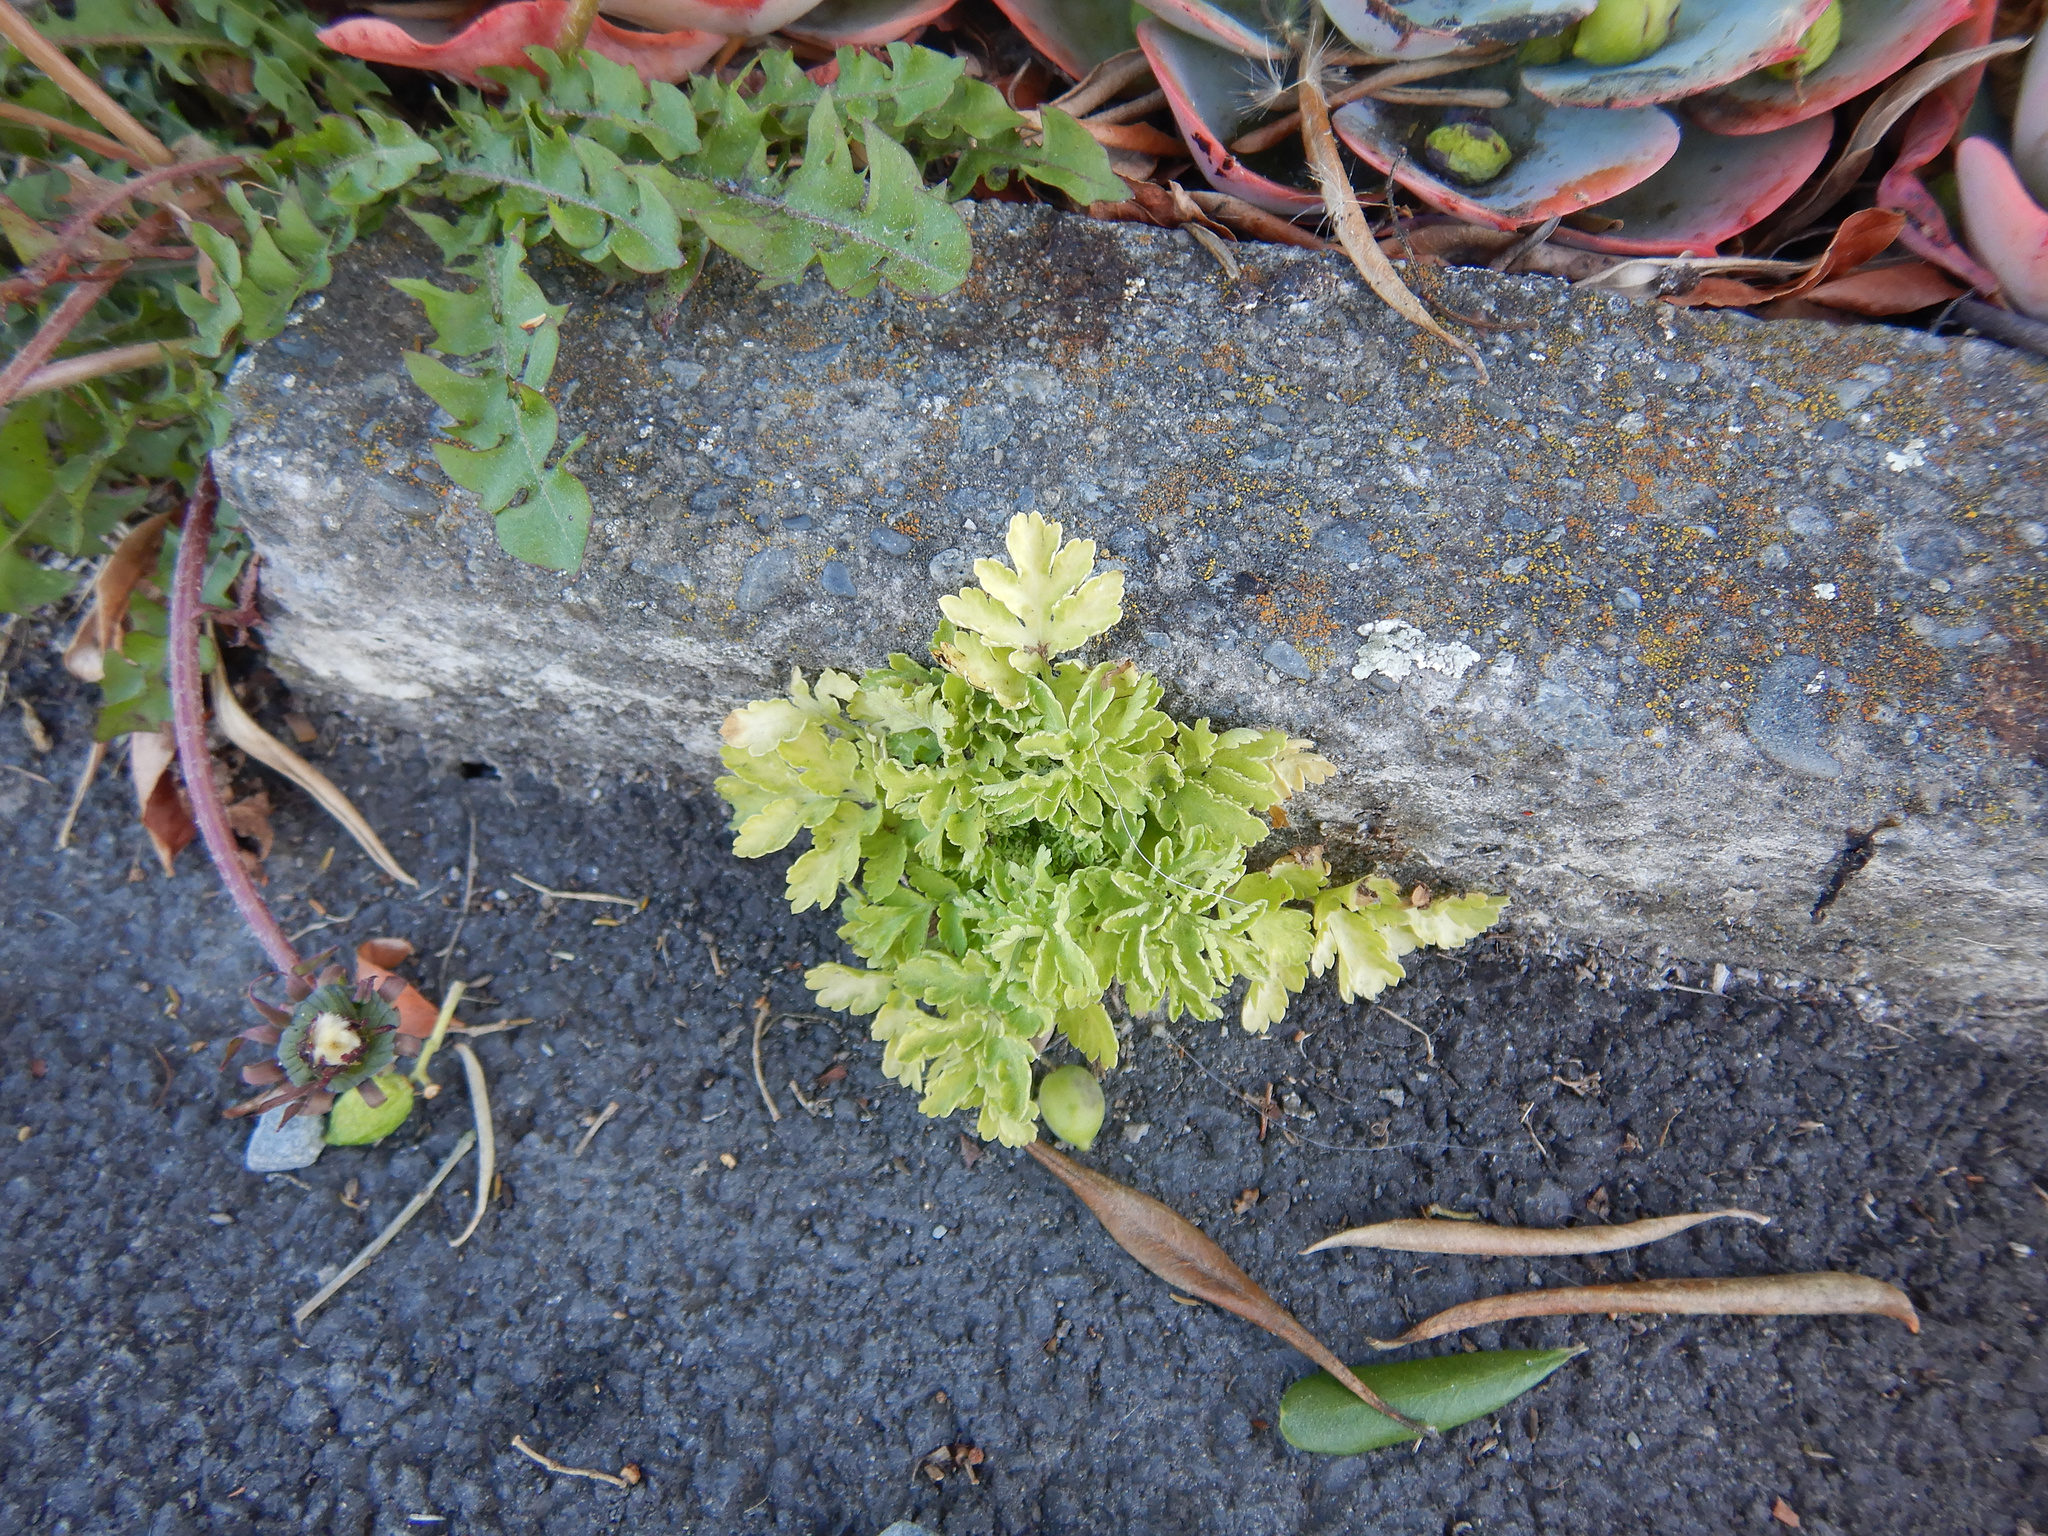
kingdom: Plantae
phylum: Tracheophyta
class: Magnoliopsida
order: Asterales
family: Asteraceae
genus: Tanacetum
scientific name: Tanacetum vulgare
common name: Common tansy
